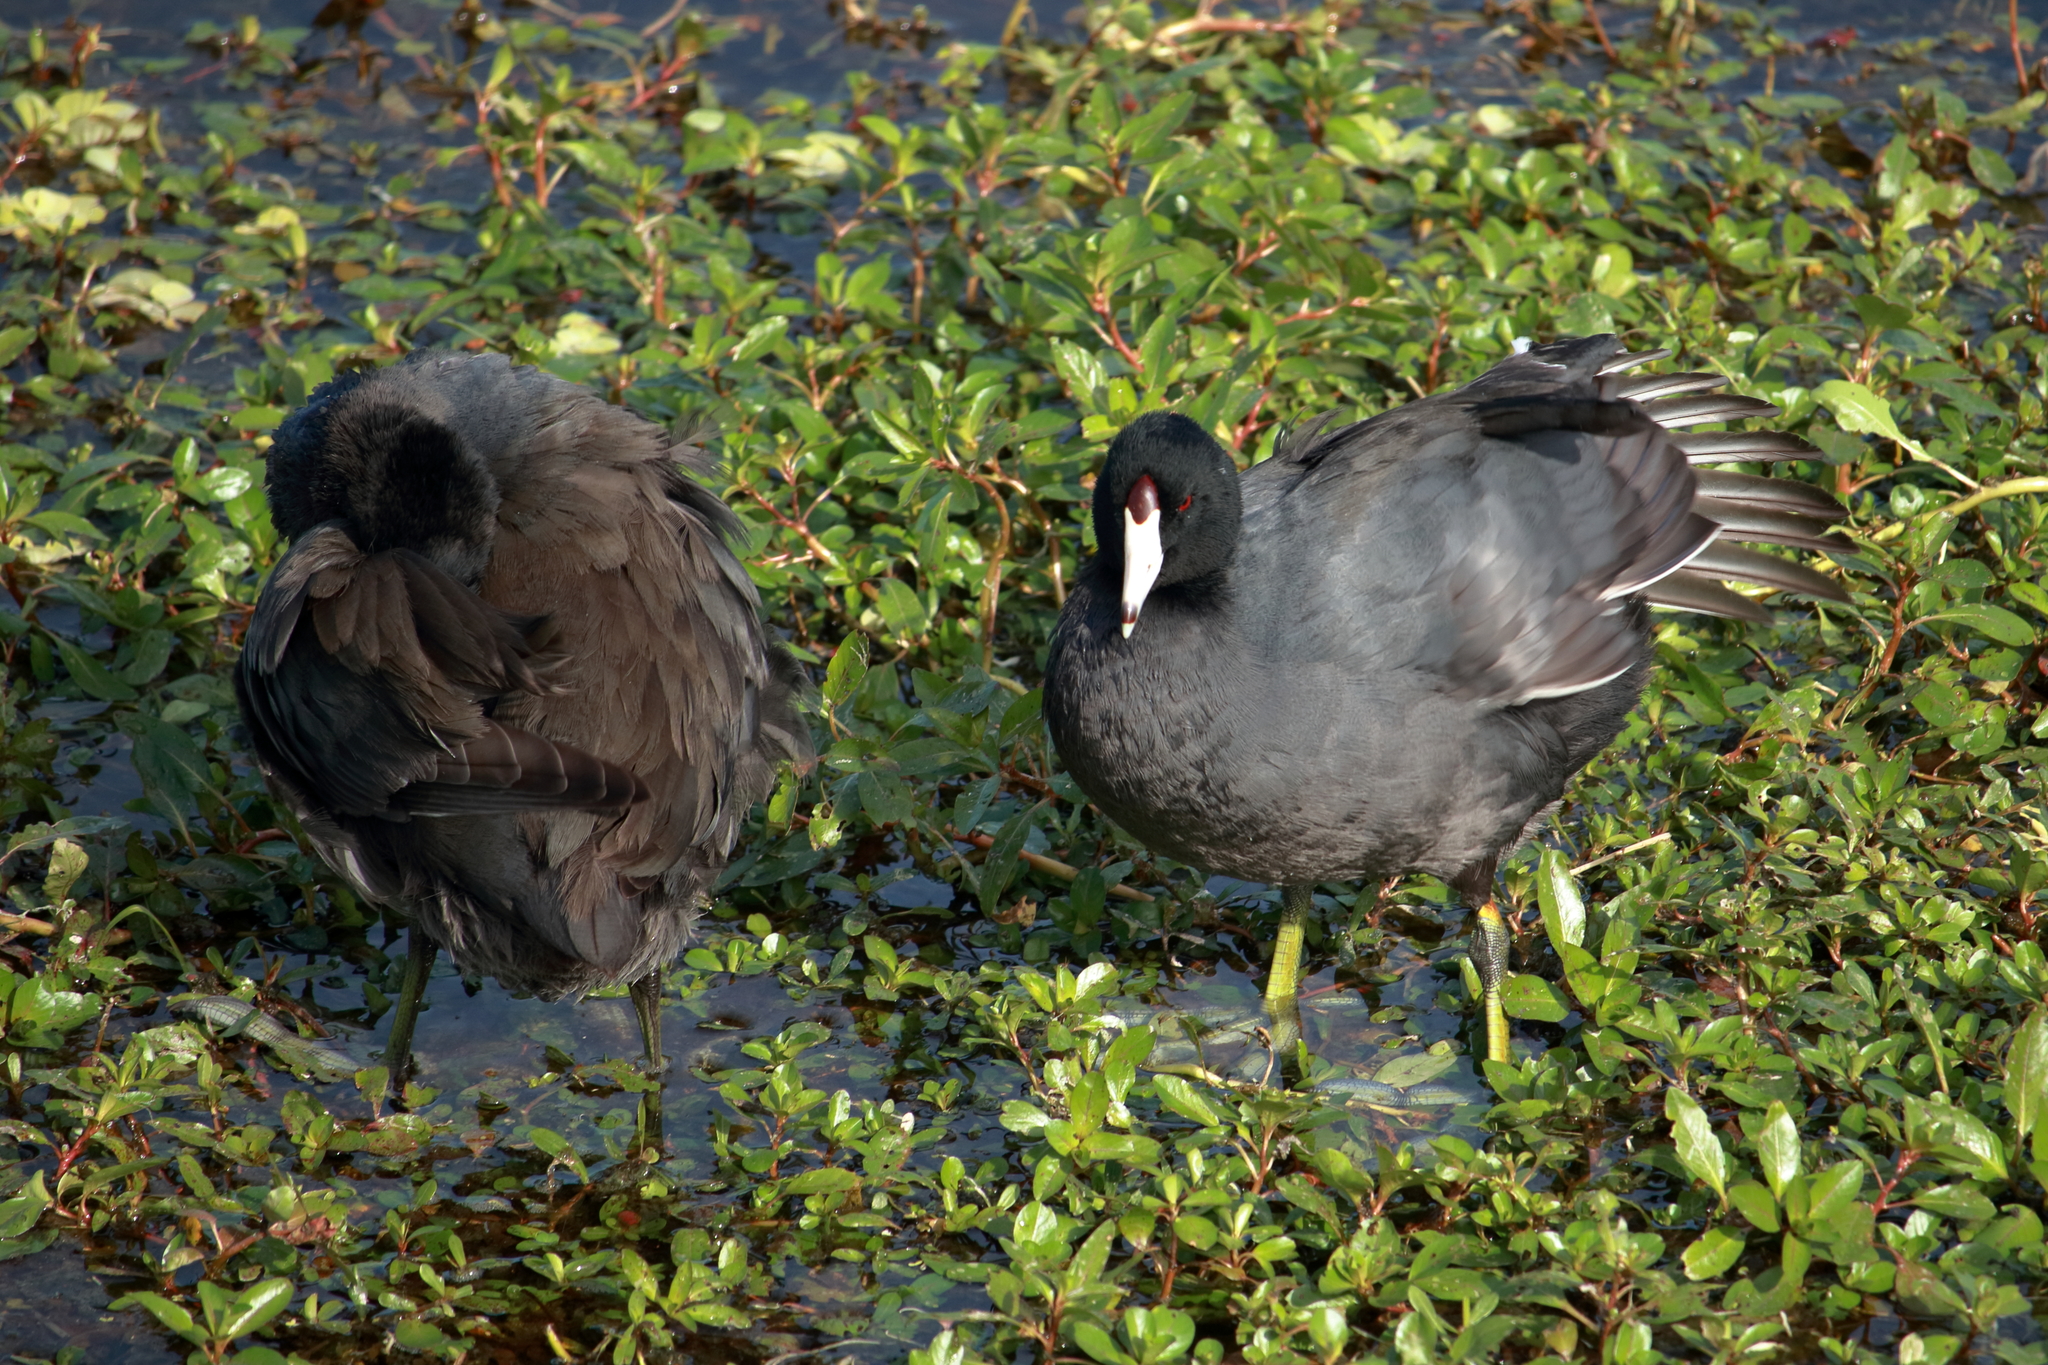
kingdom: Animalia
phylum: Chordata
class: Aves
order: Gruiformes
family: Rallidae
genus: Fulica
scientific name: Fulica americana
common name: American coot
